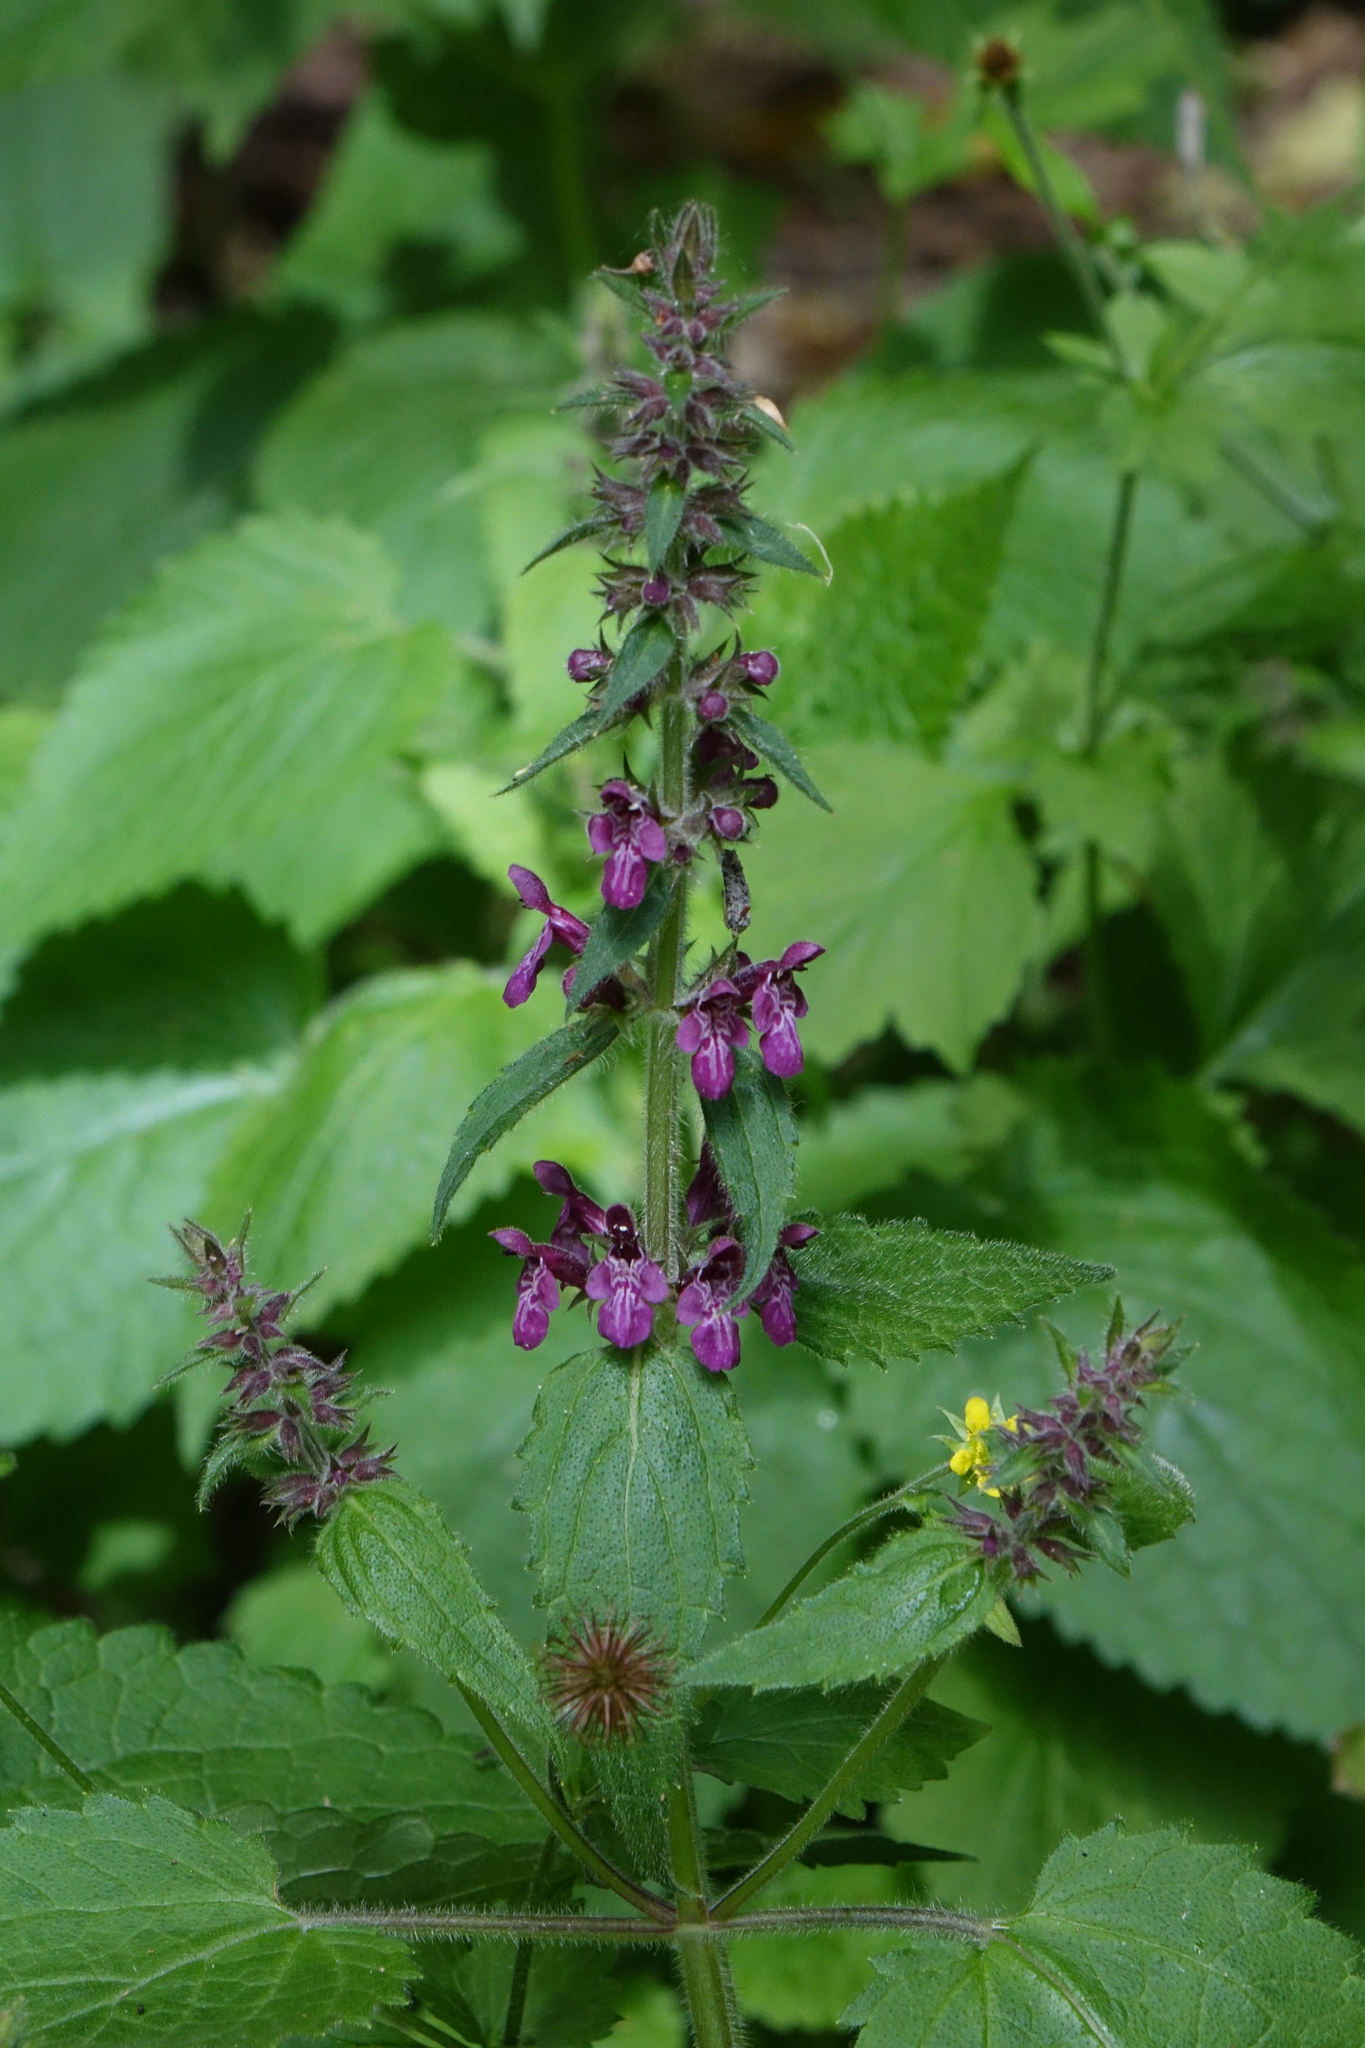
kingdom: Plantae
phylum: Tracheophyta
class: Magnoliopsida
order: Lamiales
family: Lamiaceae
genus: Stachys
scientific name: Stachys sylvatica
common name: Hedge woundwort
